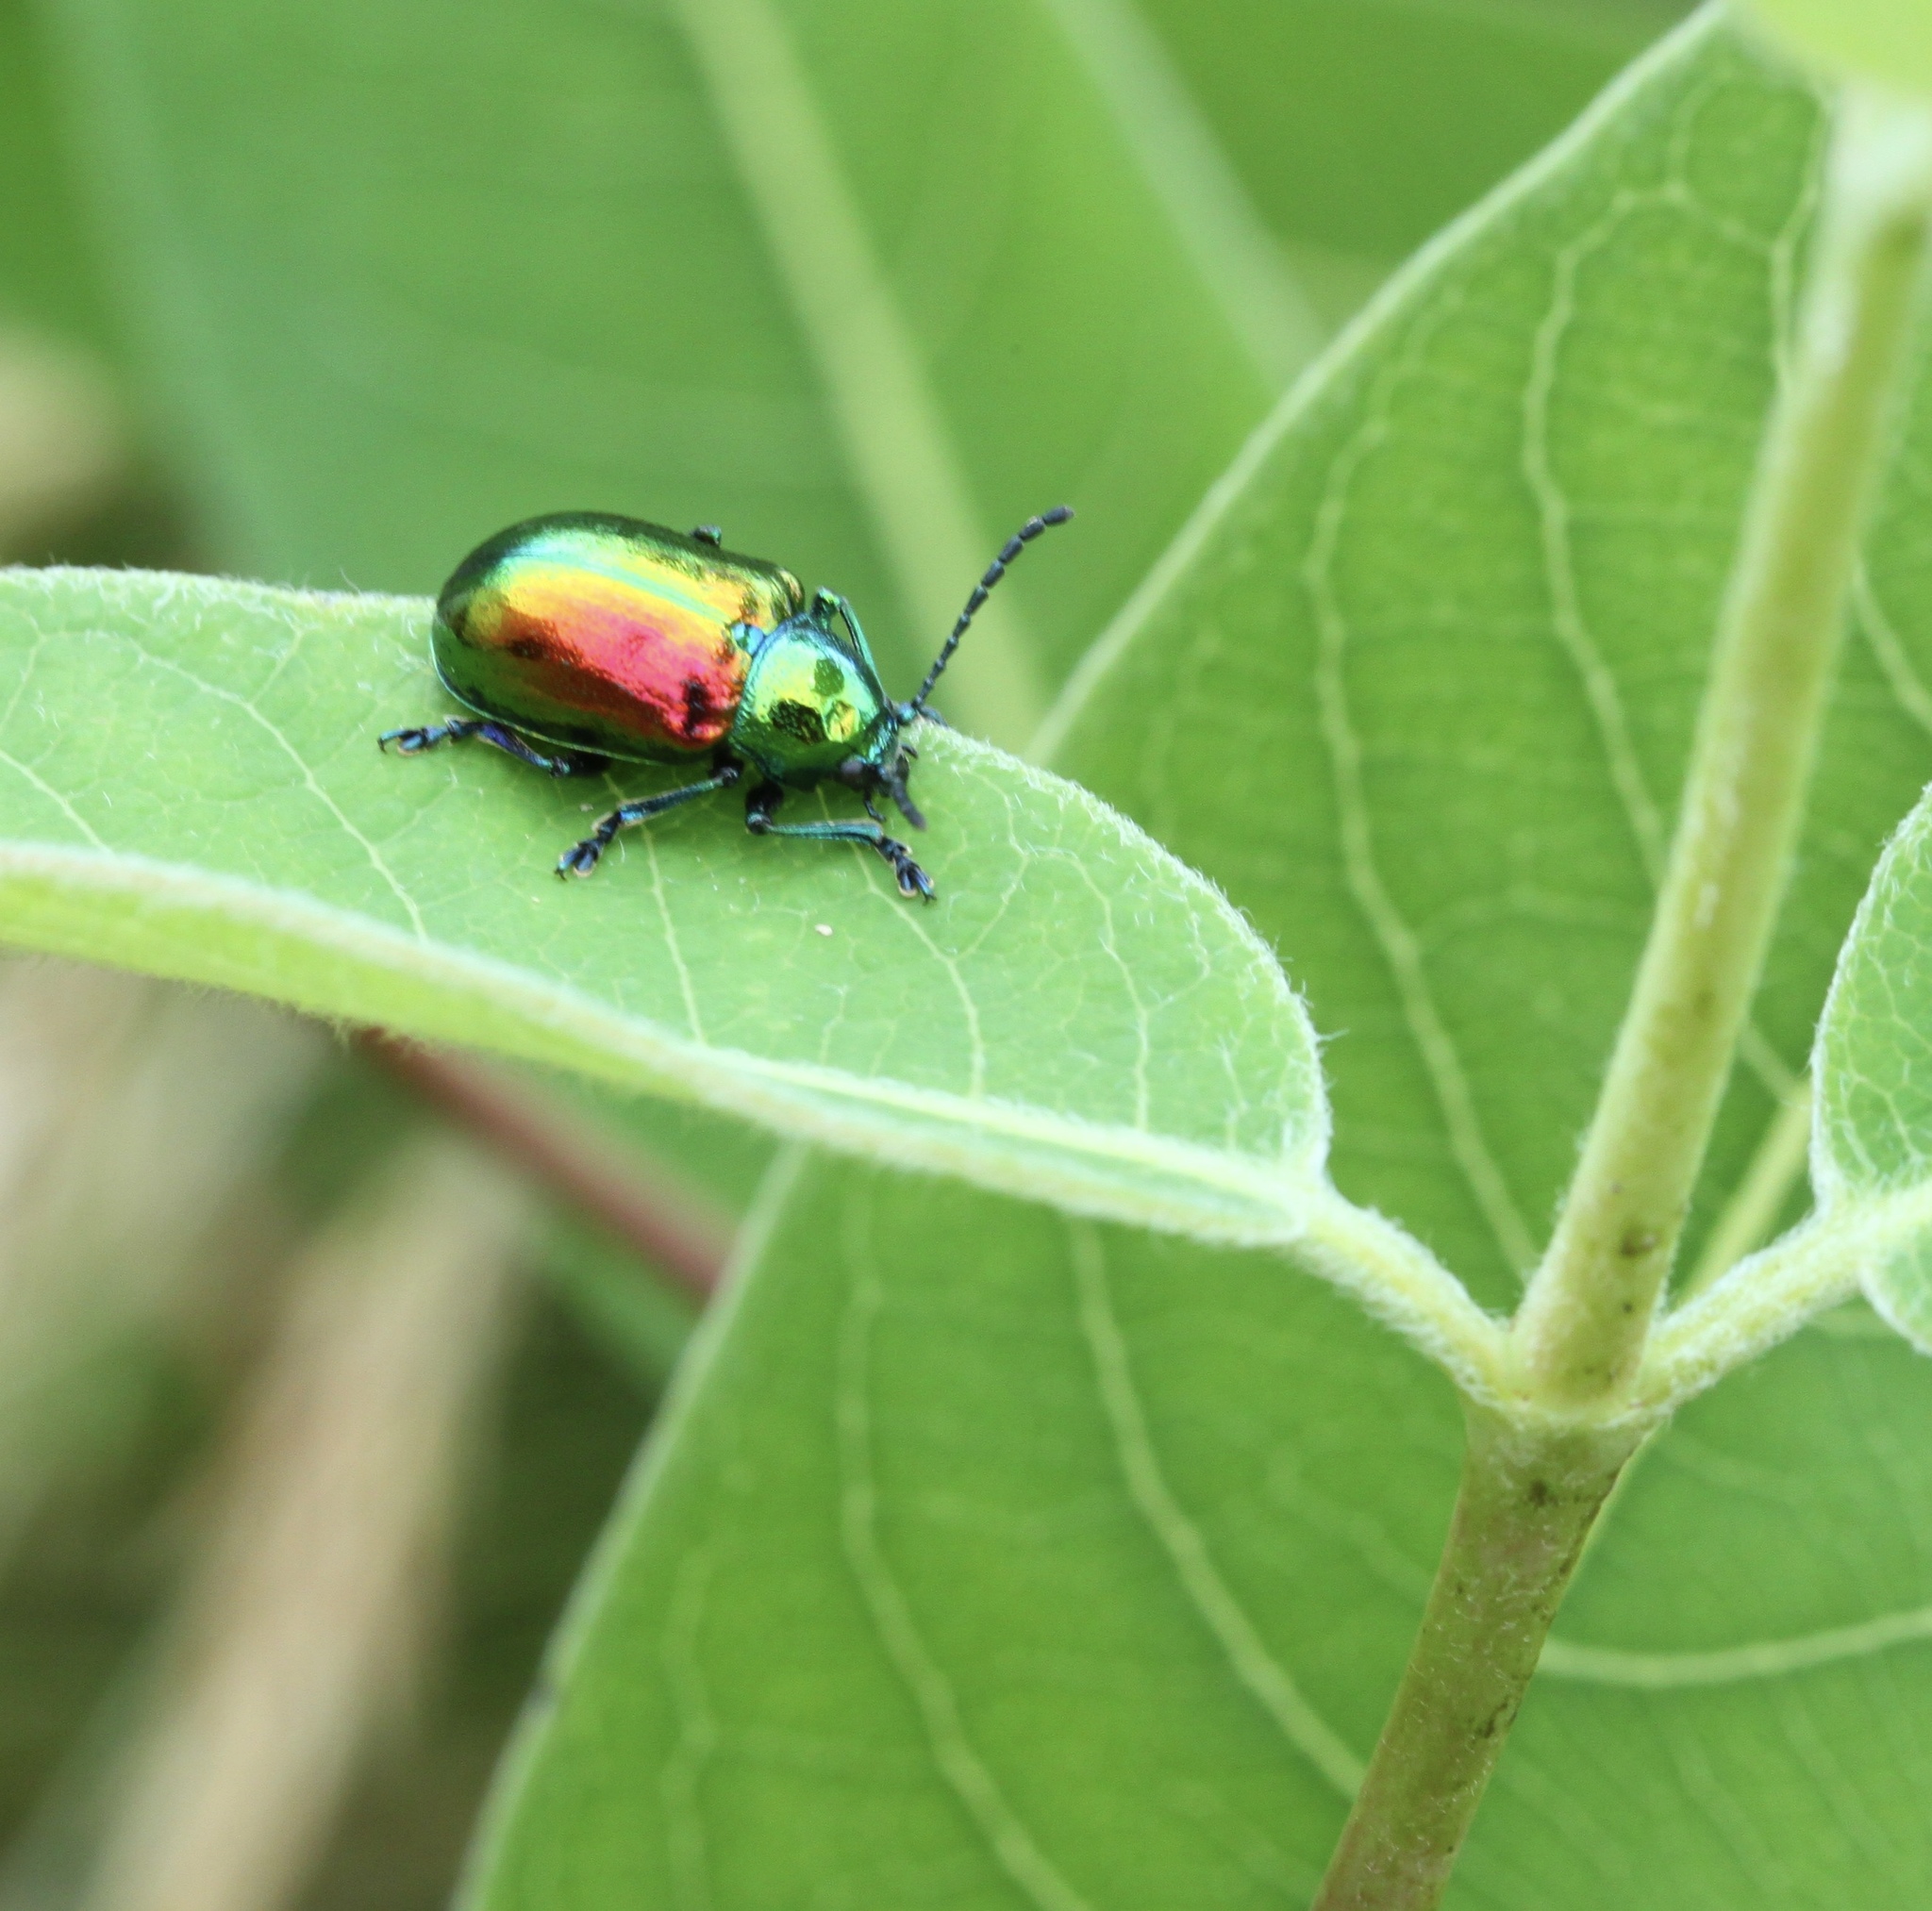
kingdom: Animalia
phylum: Arthropoda
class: Insecta
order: Coleoptera
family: Chrysomelidae
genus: Chrysochus
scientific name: Chrysochus auratus
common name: Dogbane leaf beetle
